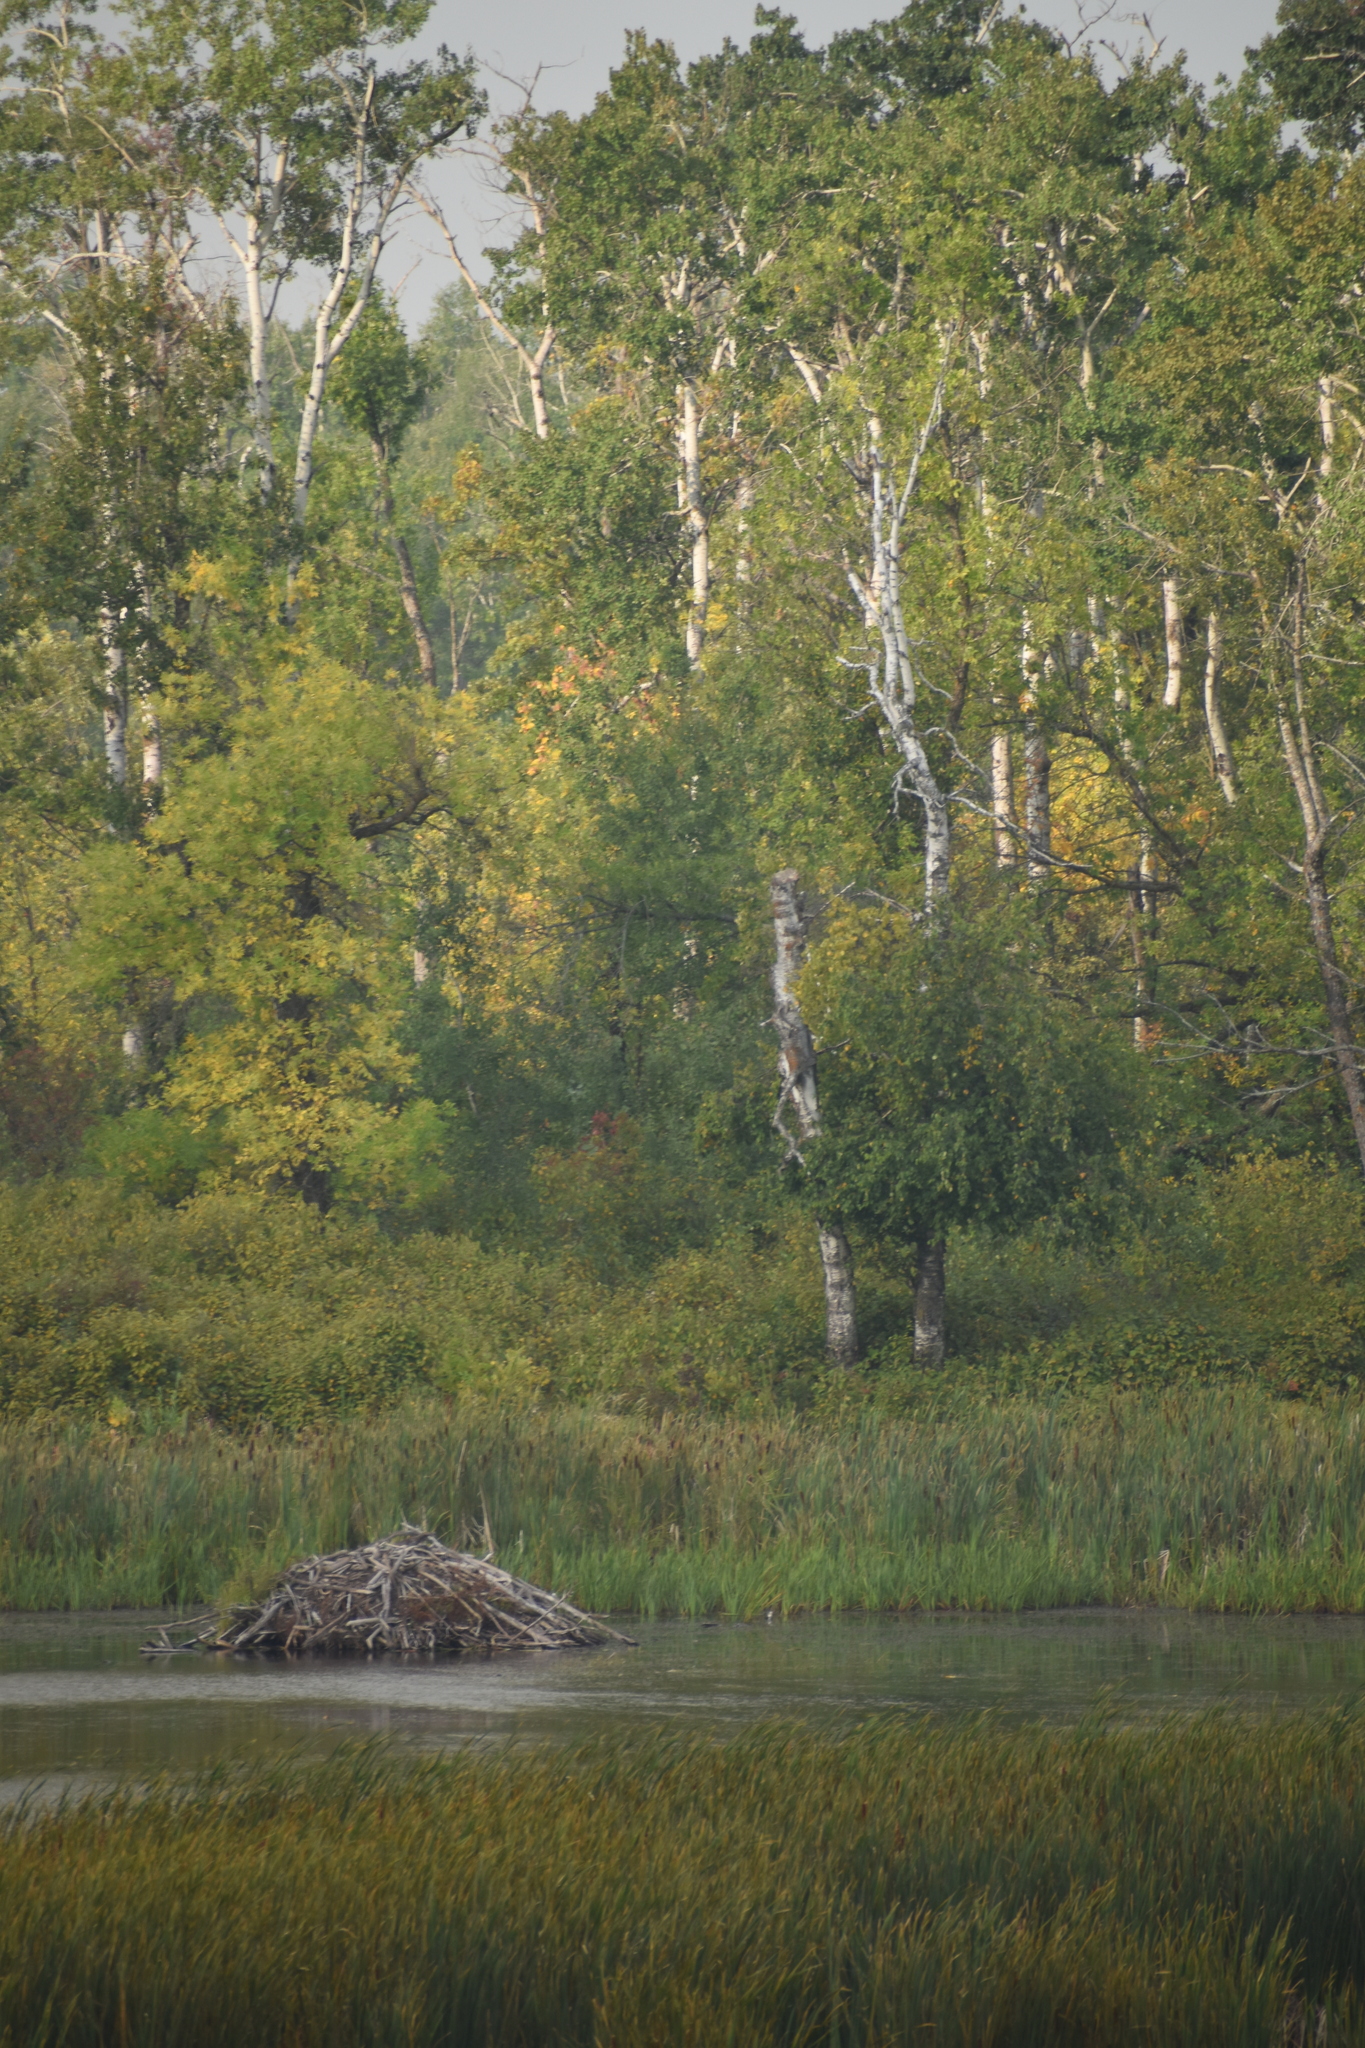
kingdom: Animalia
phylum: Chordata
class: Mammalia
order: Rodentia
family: Castoridae
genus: Castor
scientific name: Castor canadensis
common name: American beaver
